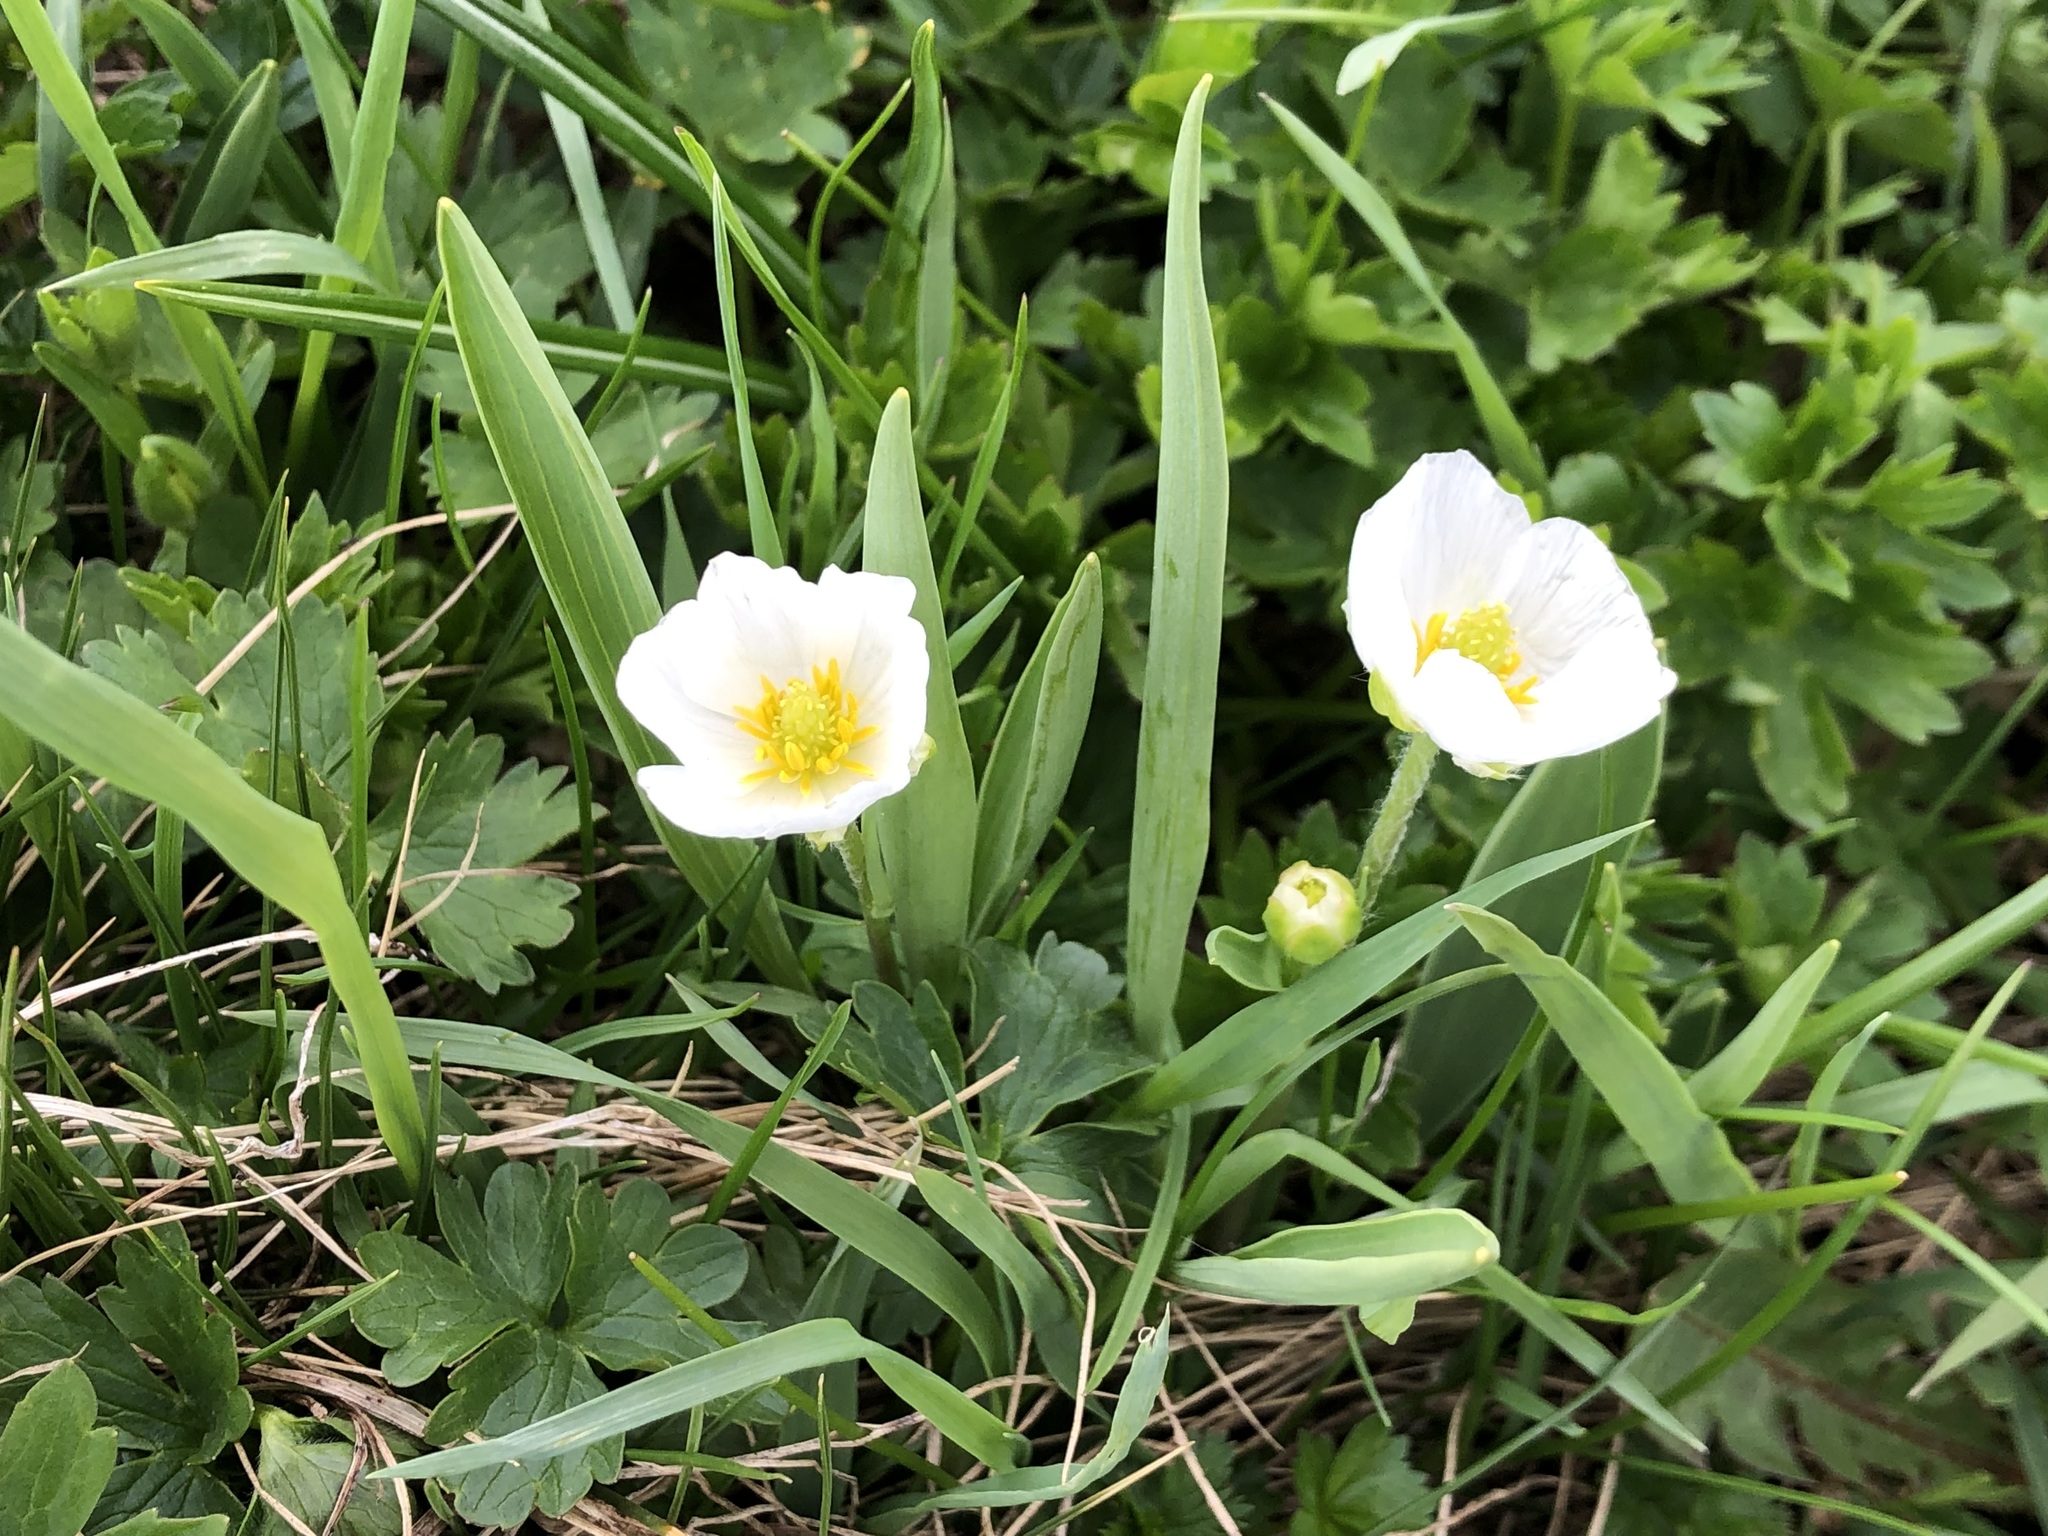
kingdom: Plantae
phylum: Tracheophyta
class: Magnoliopsida
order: Ranunculales
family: Ranunculaceae
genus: Ranunculus
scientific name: Ranunculus kuepferi
